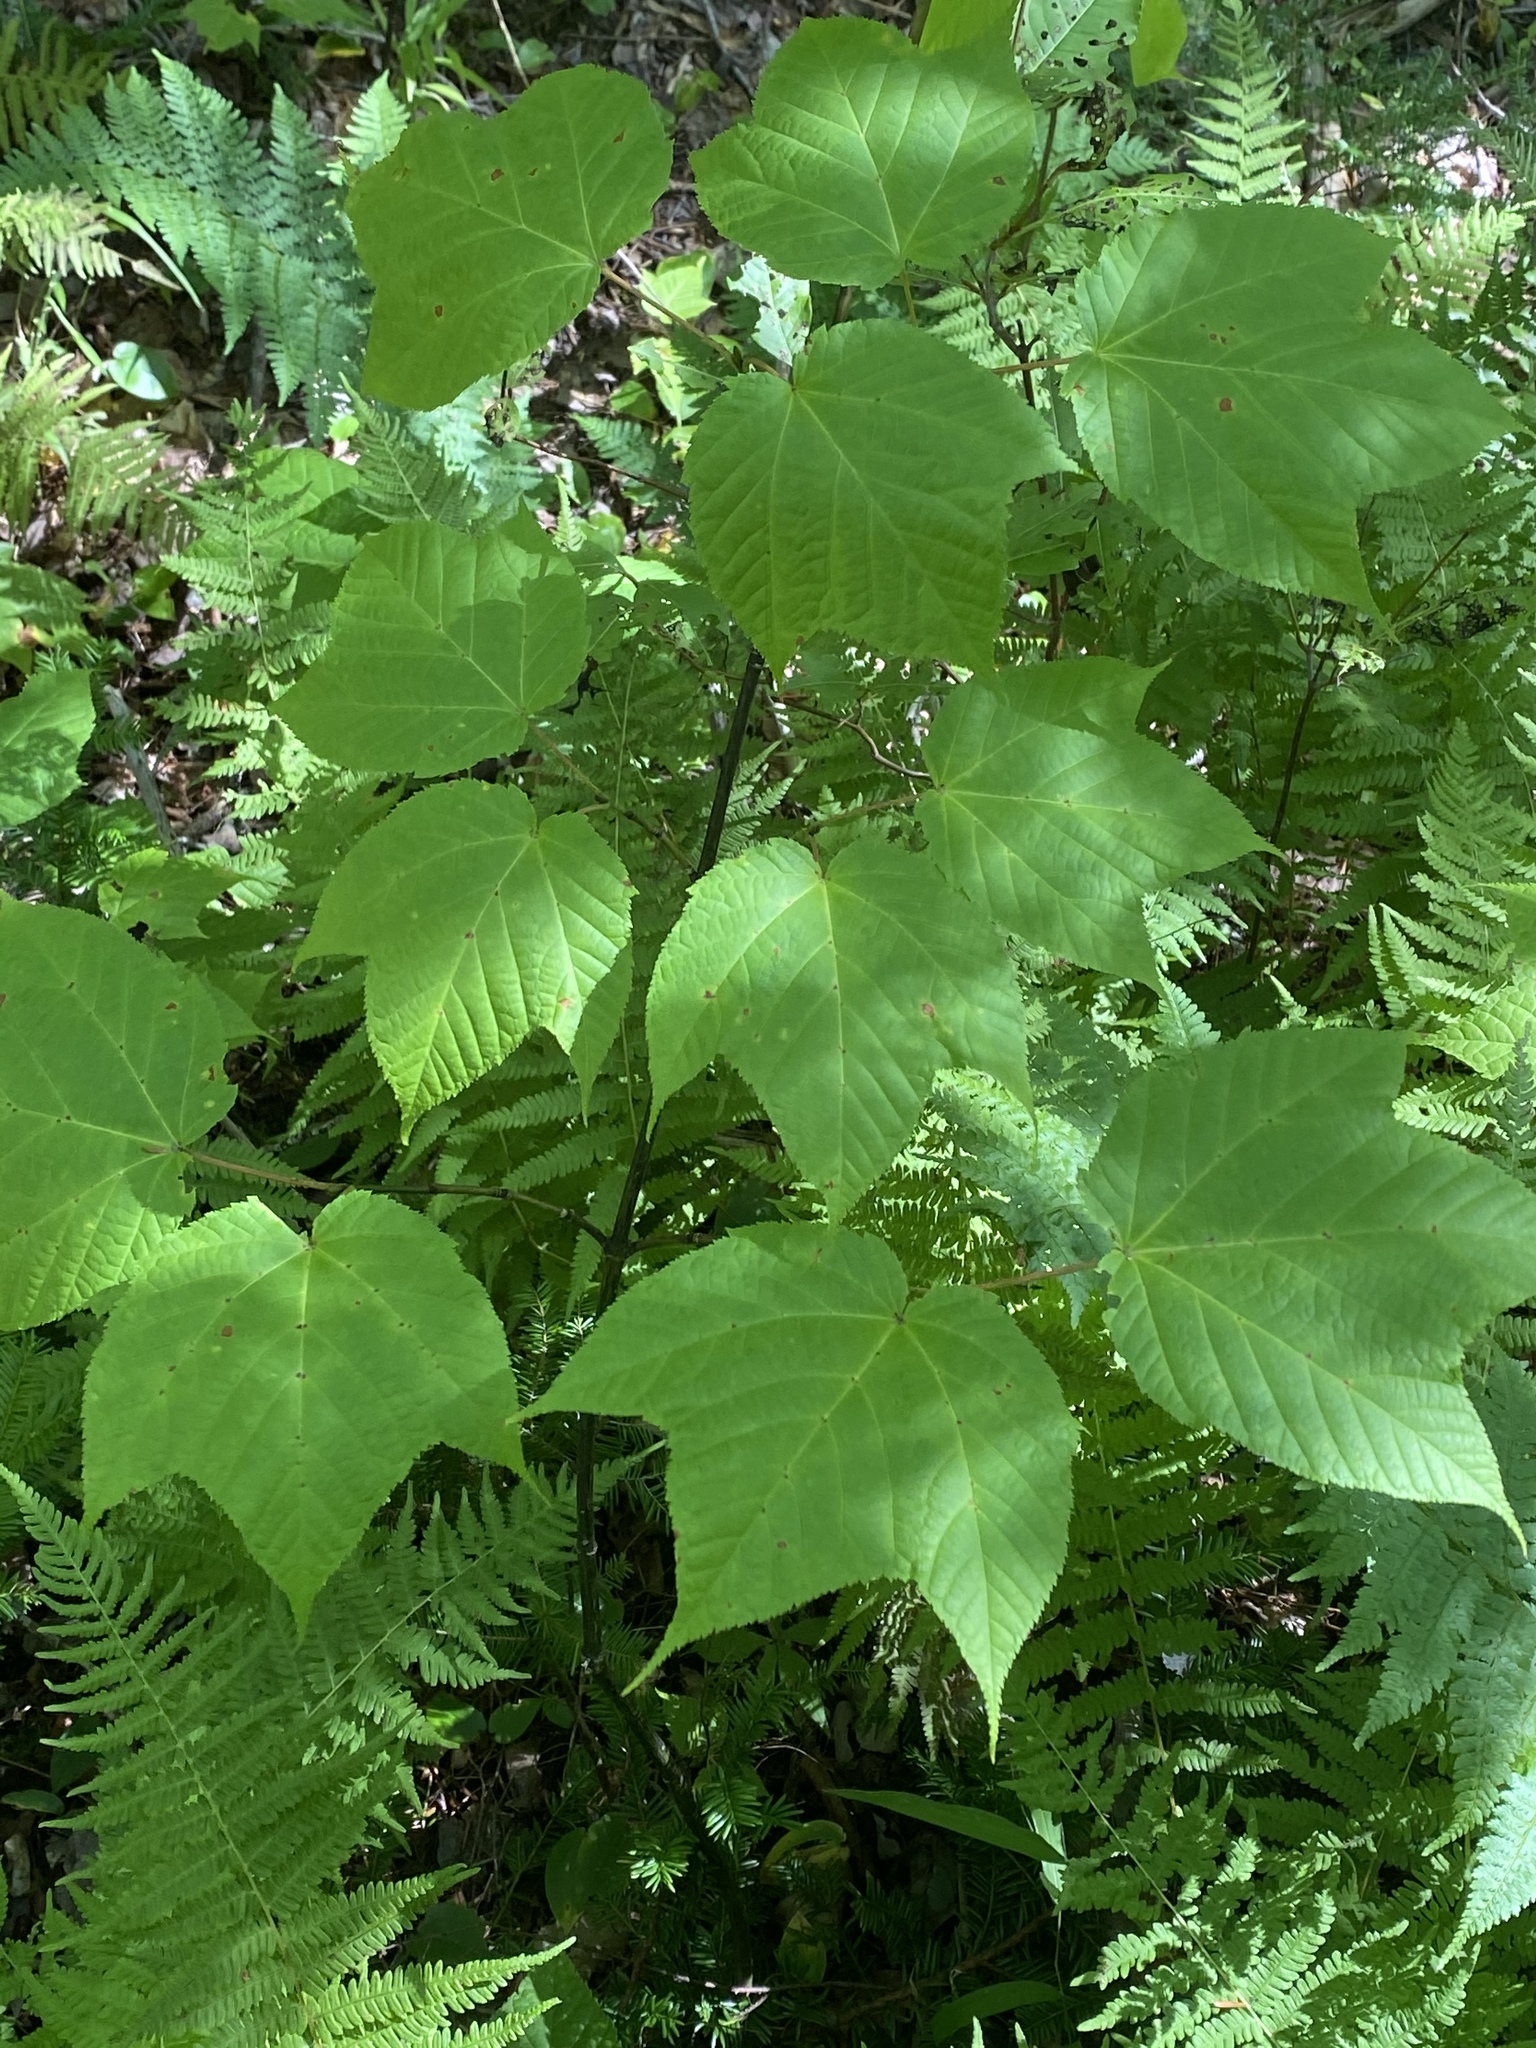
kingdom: Plantae
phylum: Tracheophyta
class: Magnoliopsida
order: Sapindales
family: Sapindaceae
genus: Acer
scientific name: Acer pensylvanicum
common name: Moosewood
